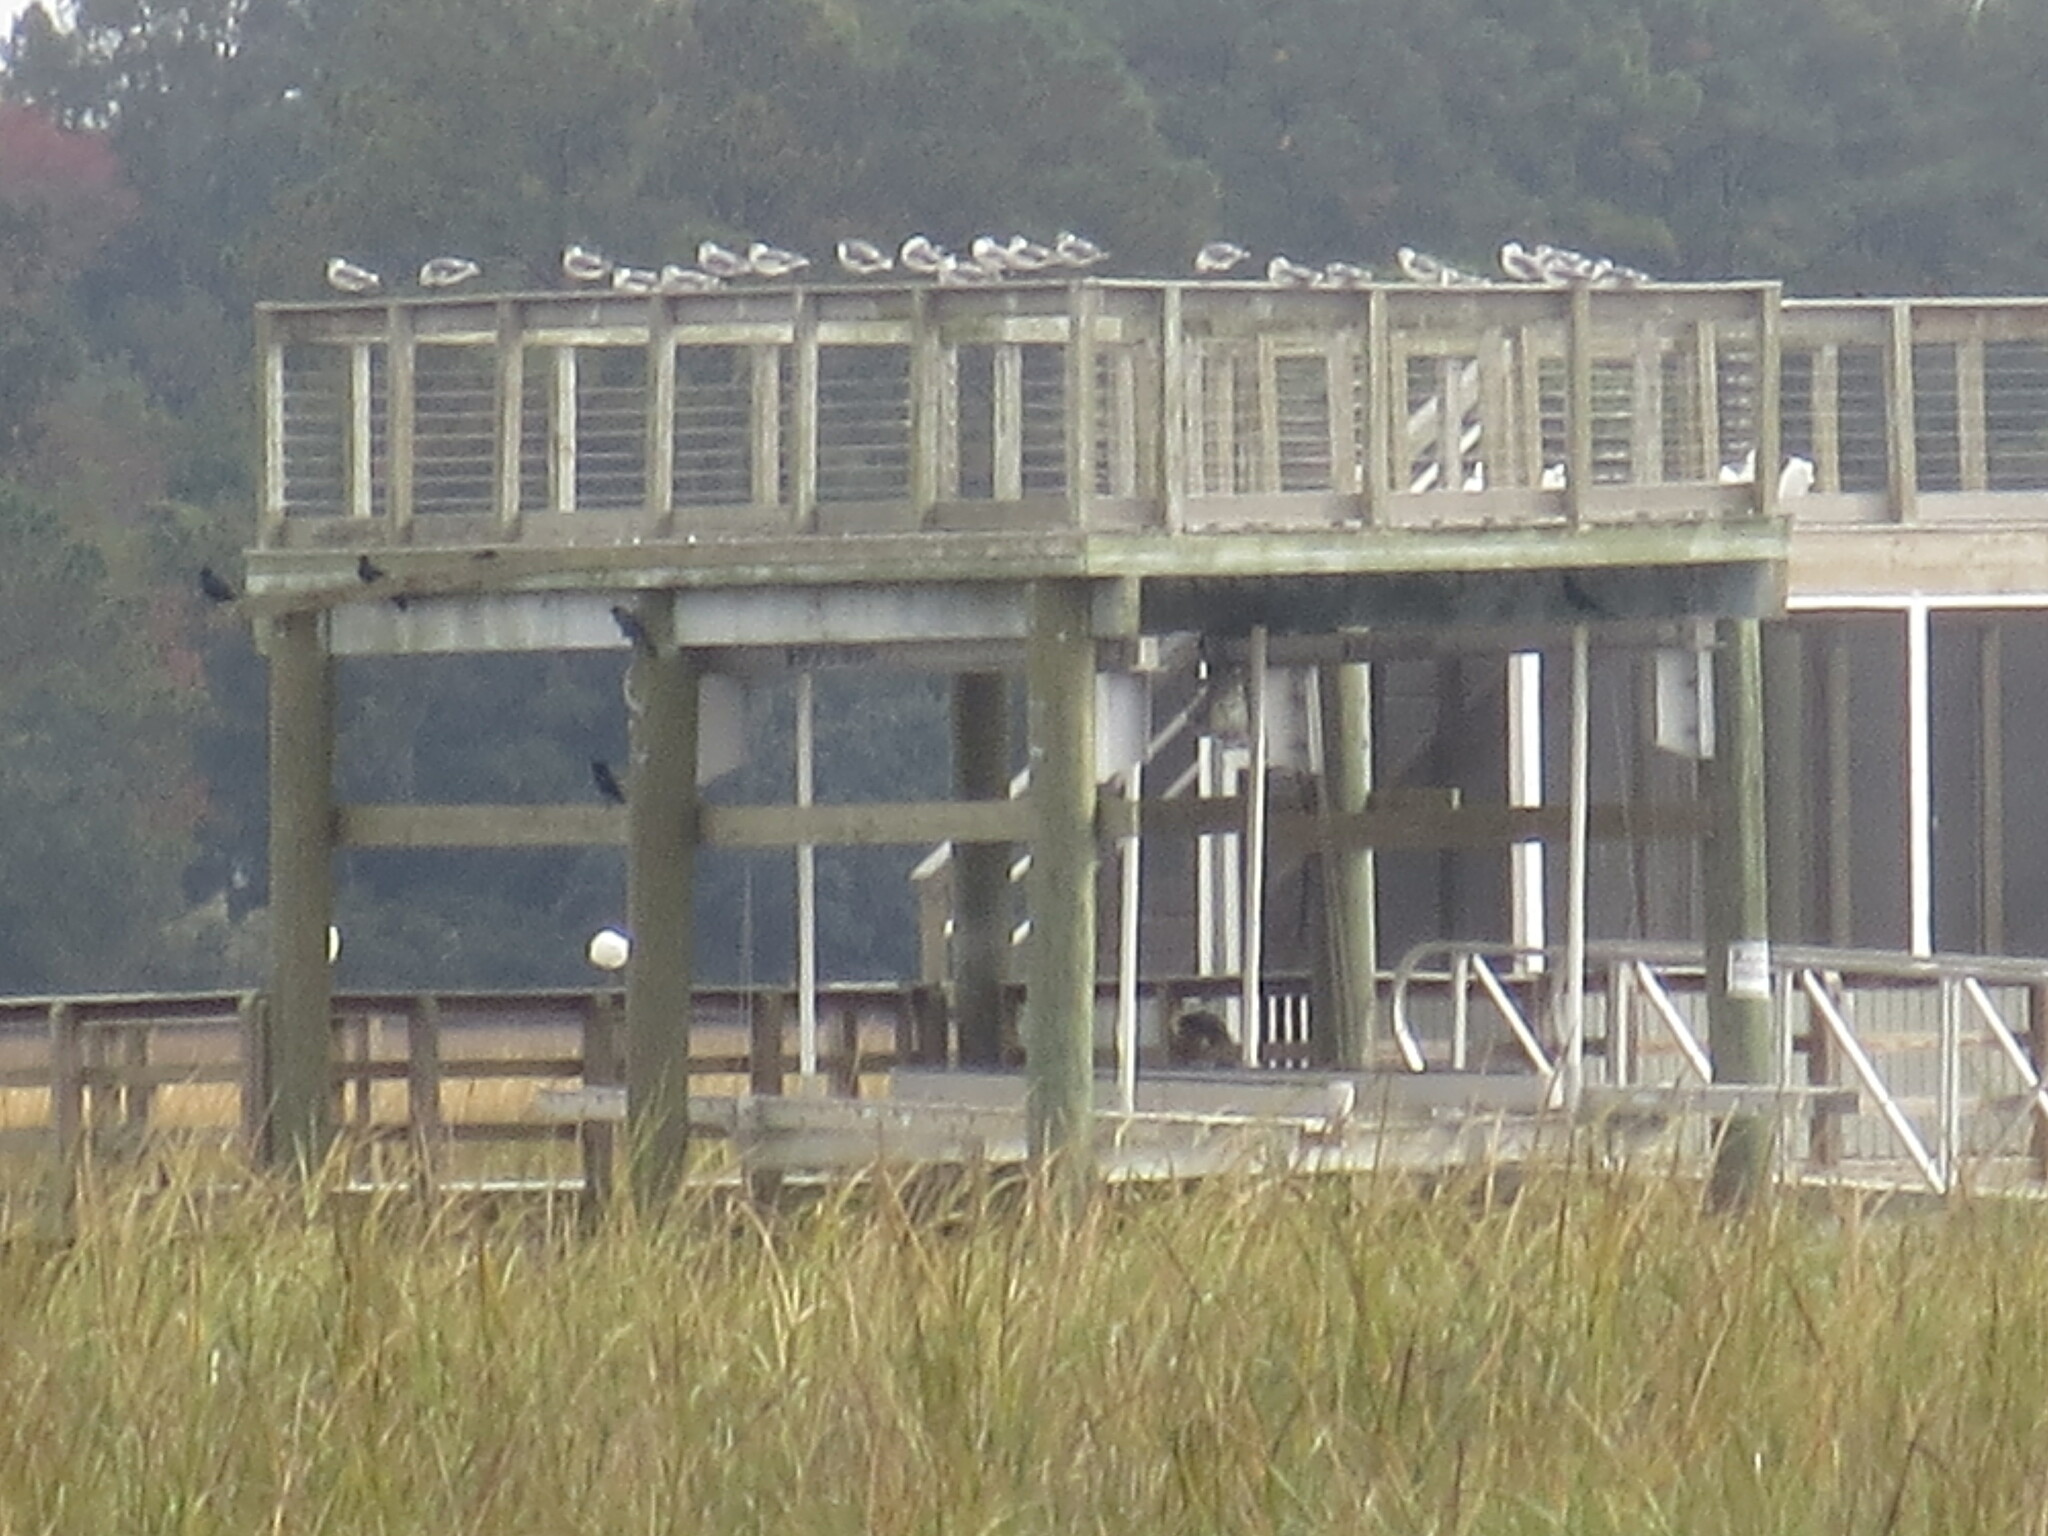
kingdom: Animalia
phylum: Chordata
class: Aves
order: Passeriformes
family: Icteridae
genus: Quiscalus
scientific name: Quiscalus major
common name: Boat-tailed grackle
